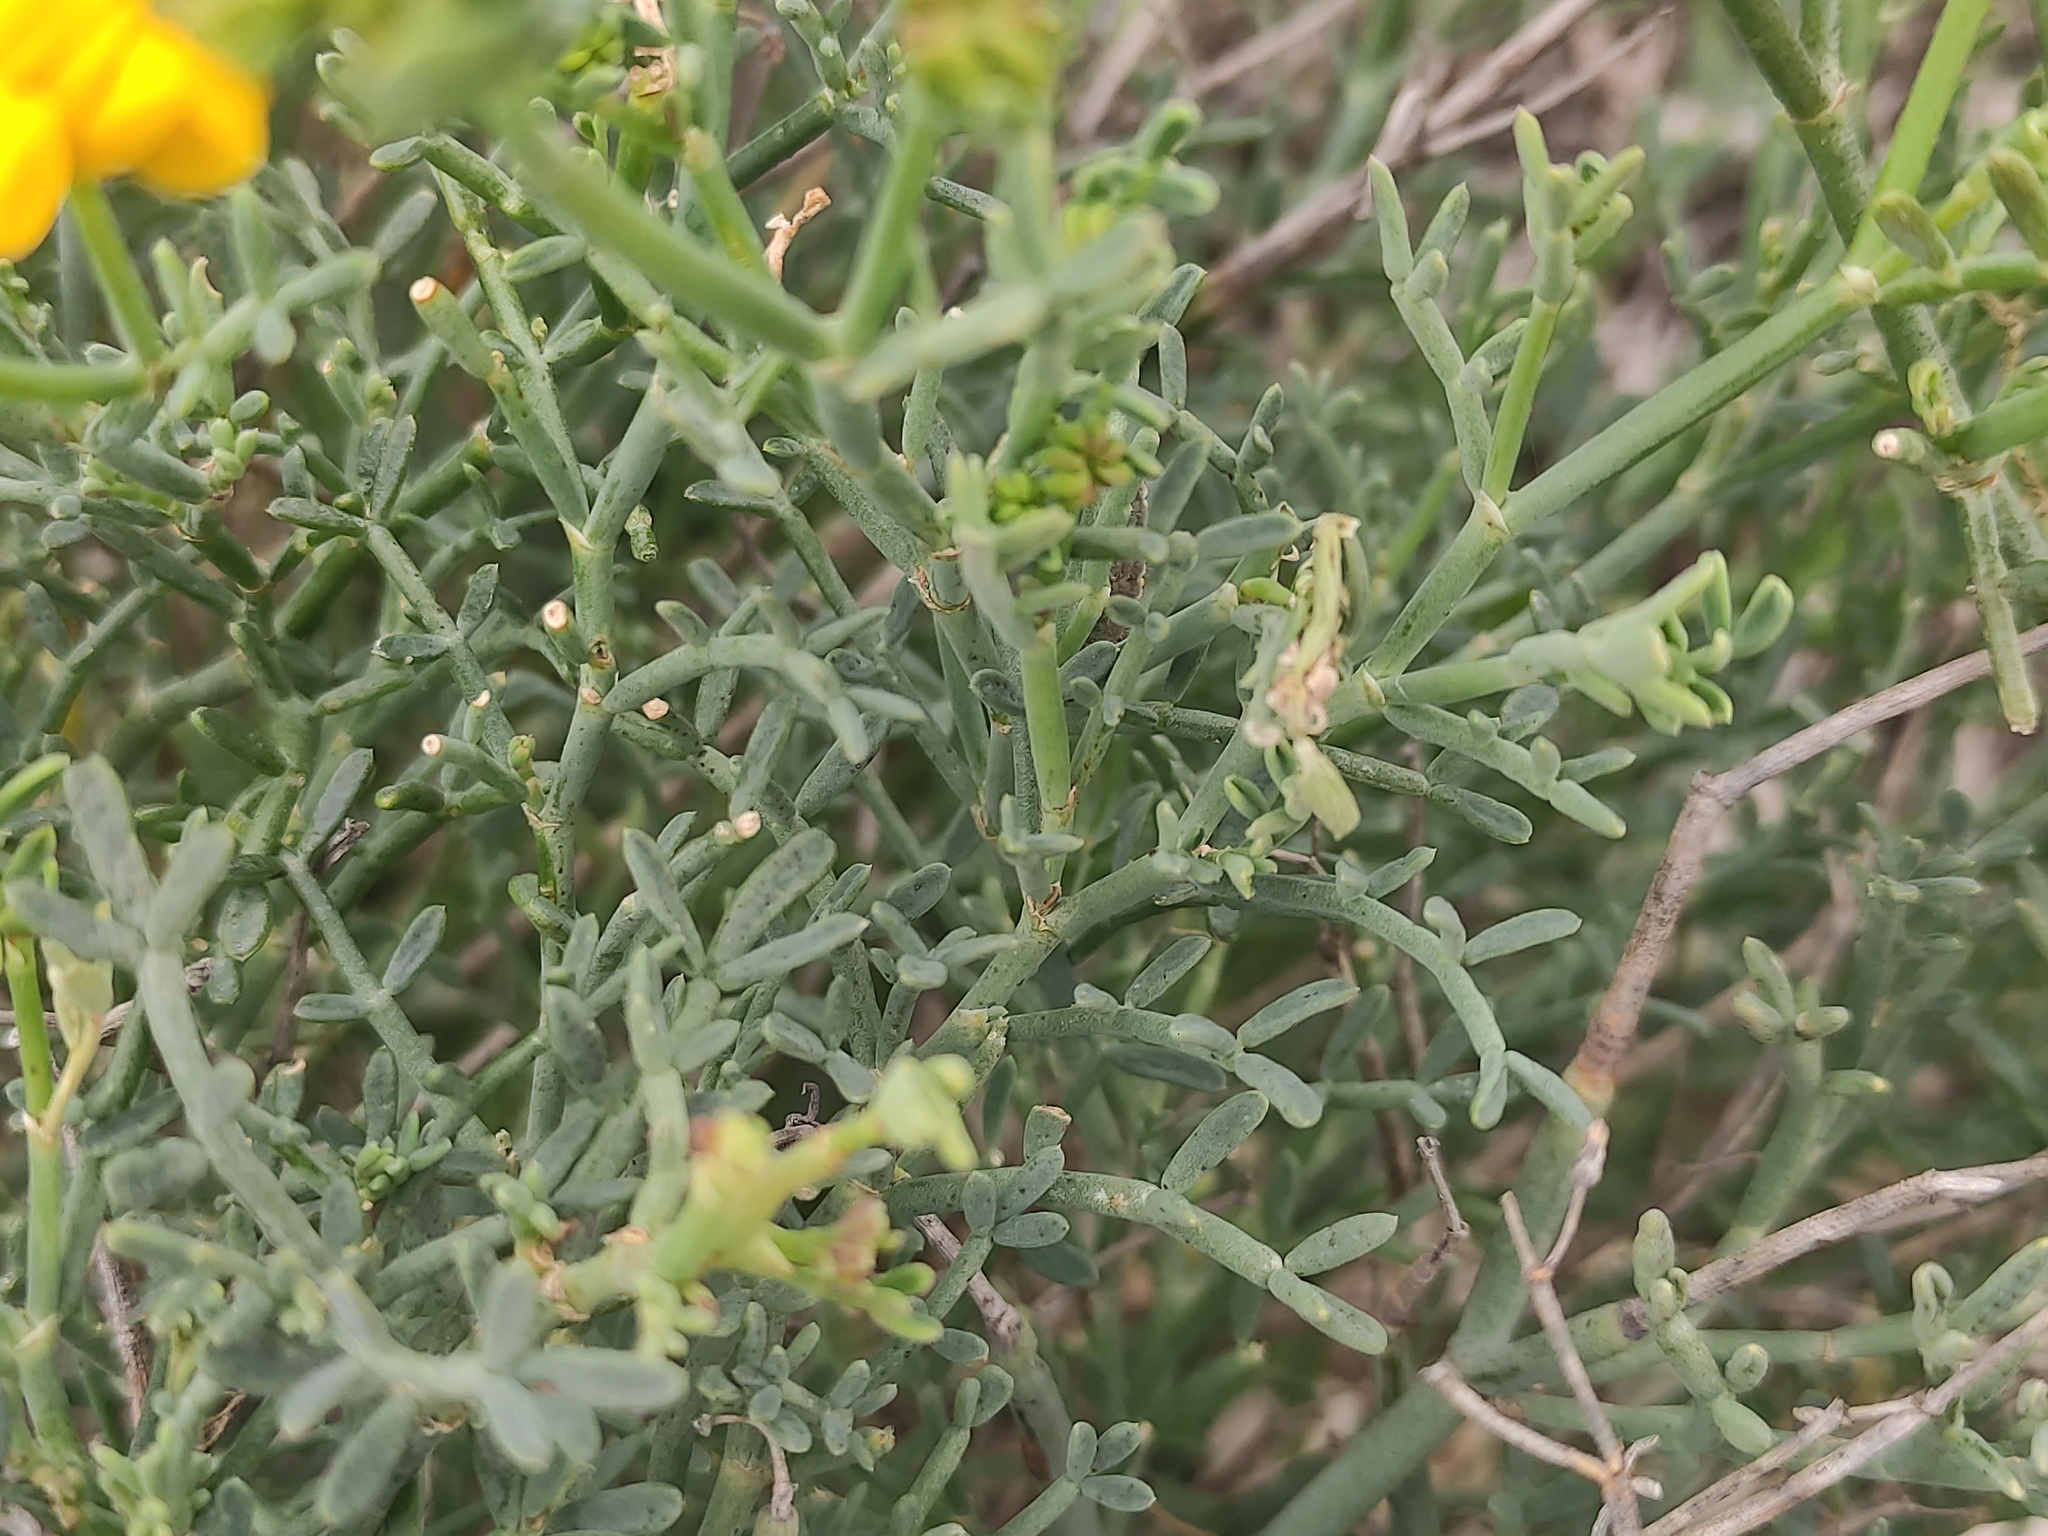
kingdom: Plantae
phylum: Tracheophyta
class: Magnoliopsida
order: Fabales
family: Fabaceae
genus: Coronilla
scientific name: Coronilla juncea
